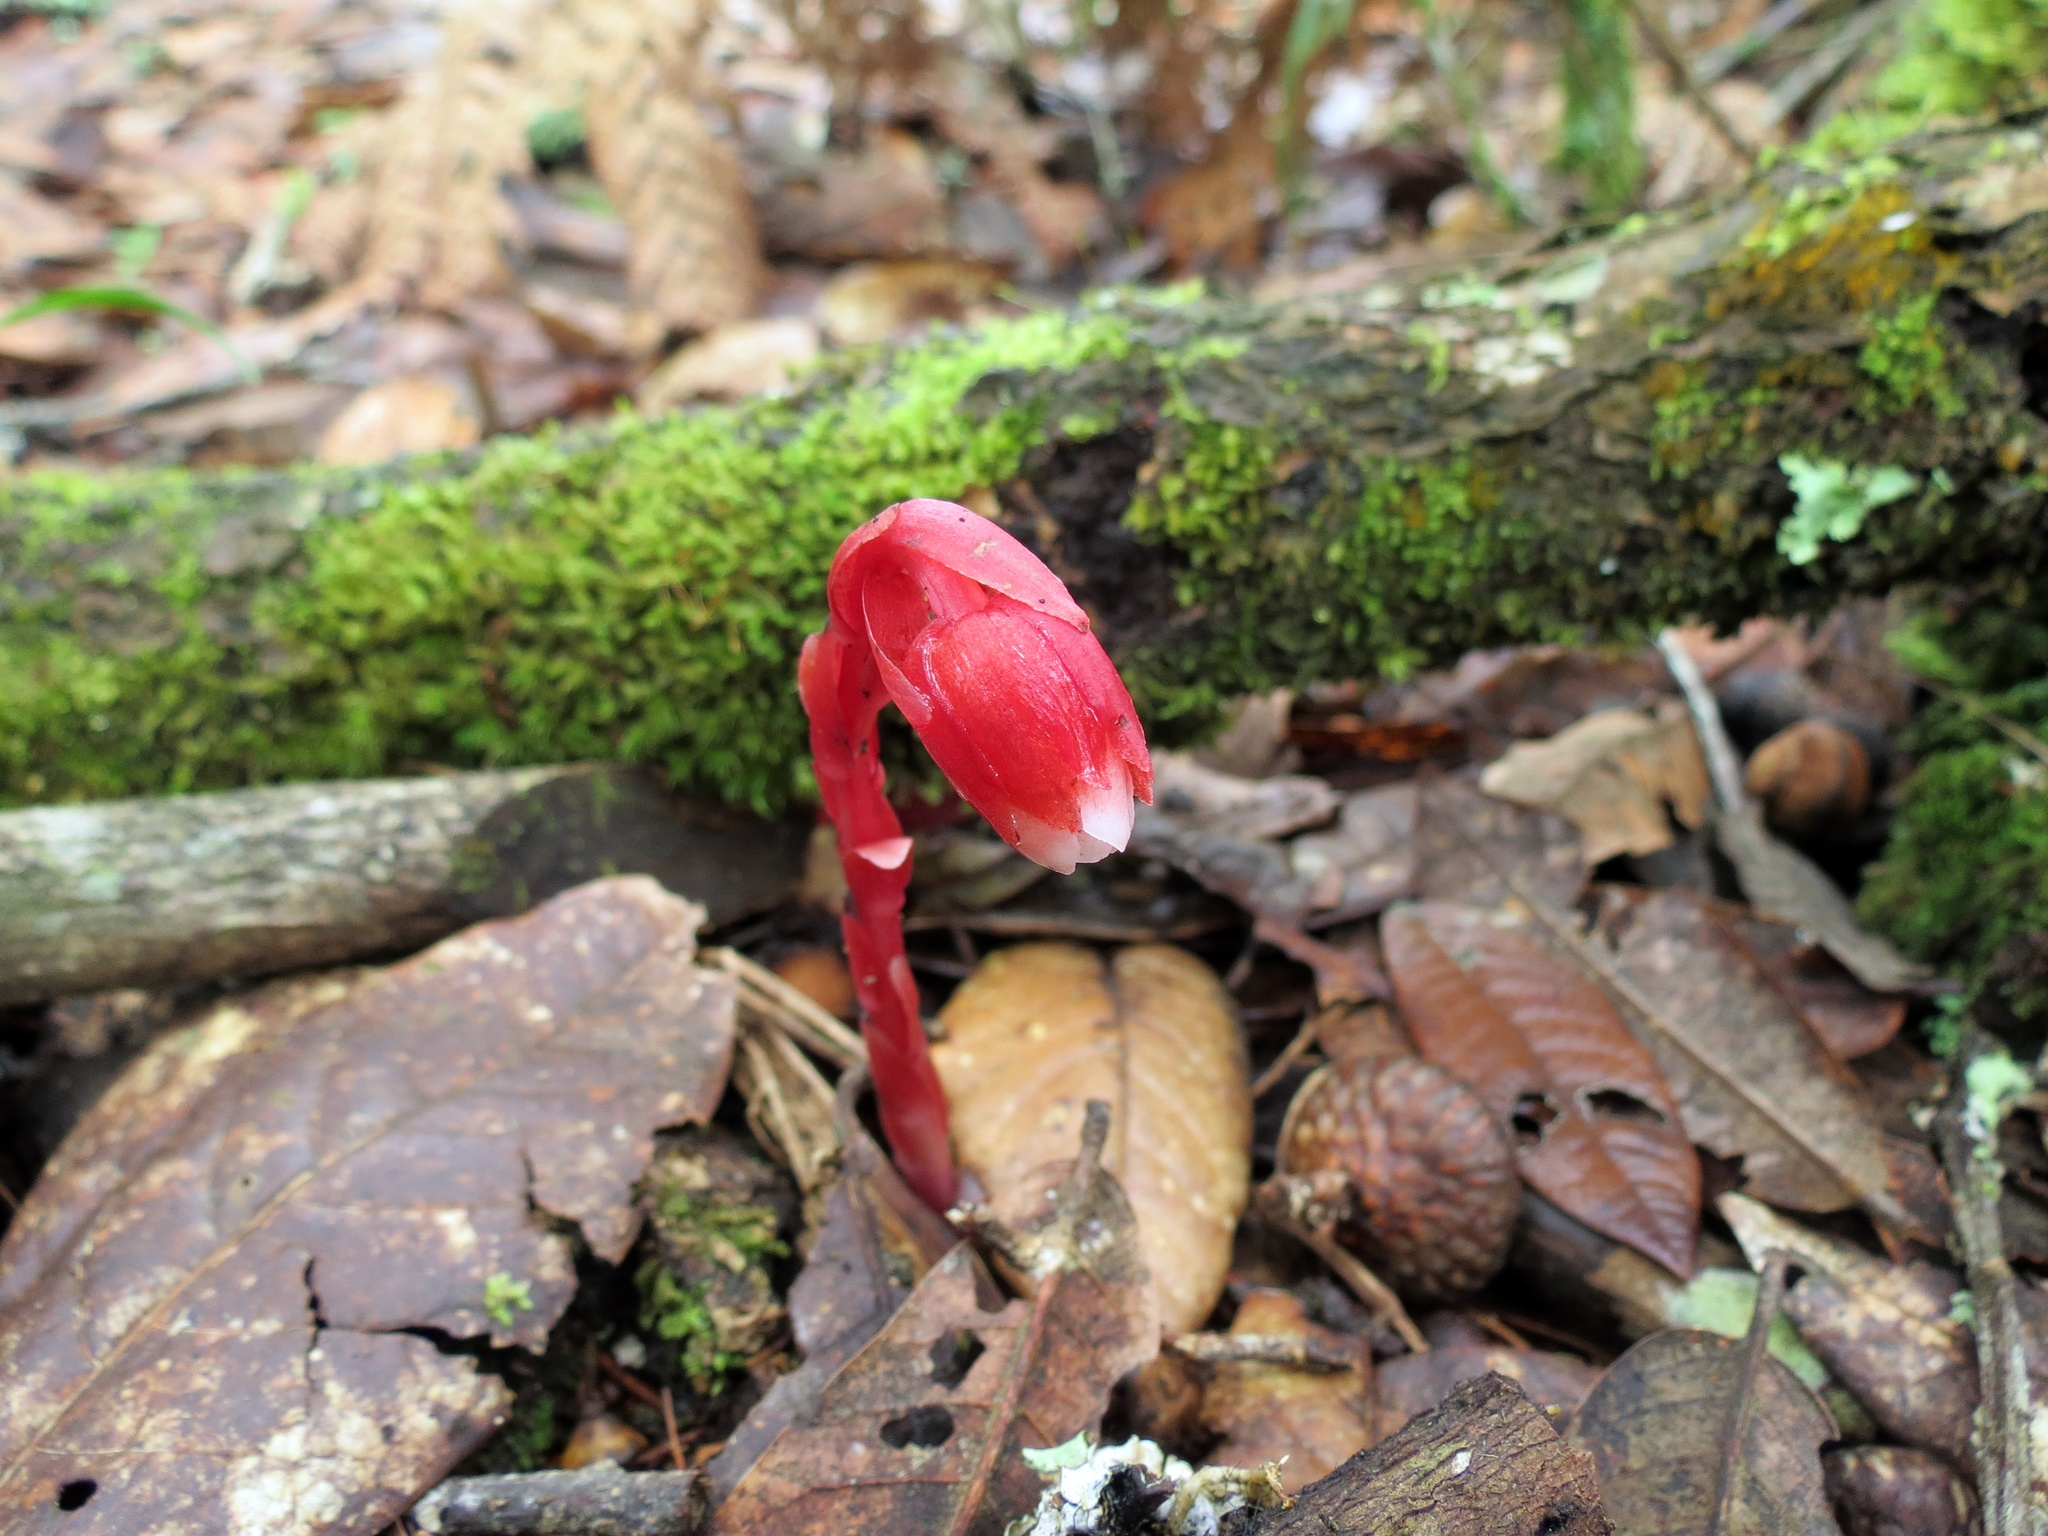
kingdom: Plantae
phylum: Tracheophyta
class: Magnoliopsida
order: Ericales
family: Ericaceae
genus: Monotropa
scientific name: Monotropa coccinea
